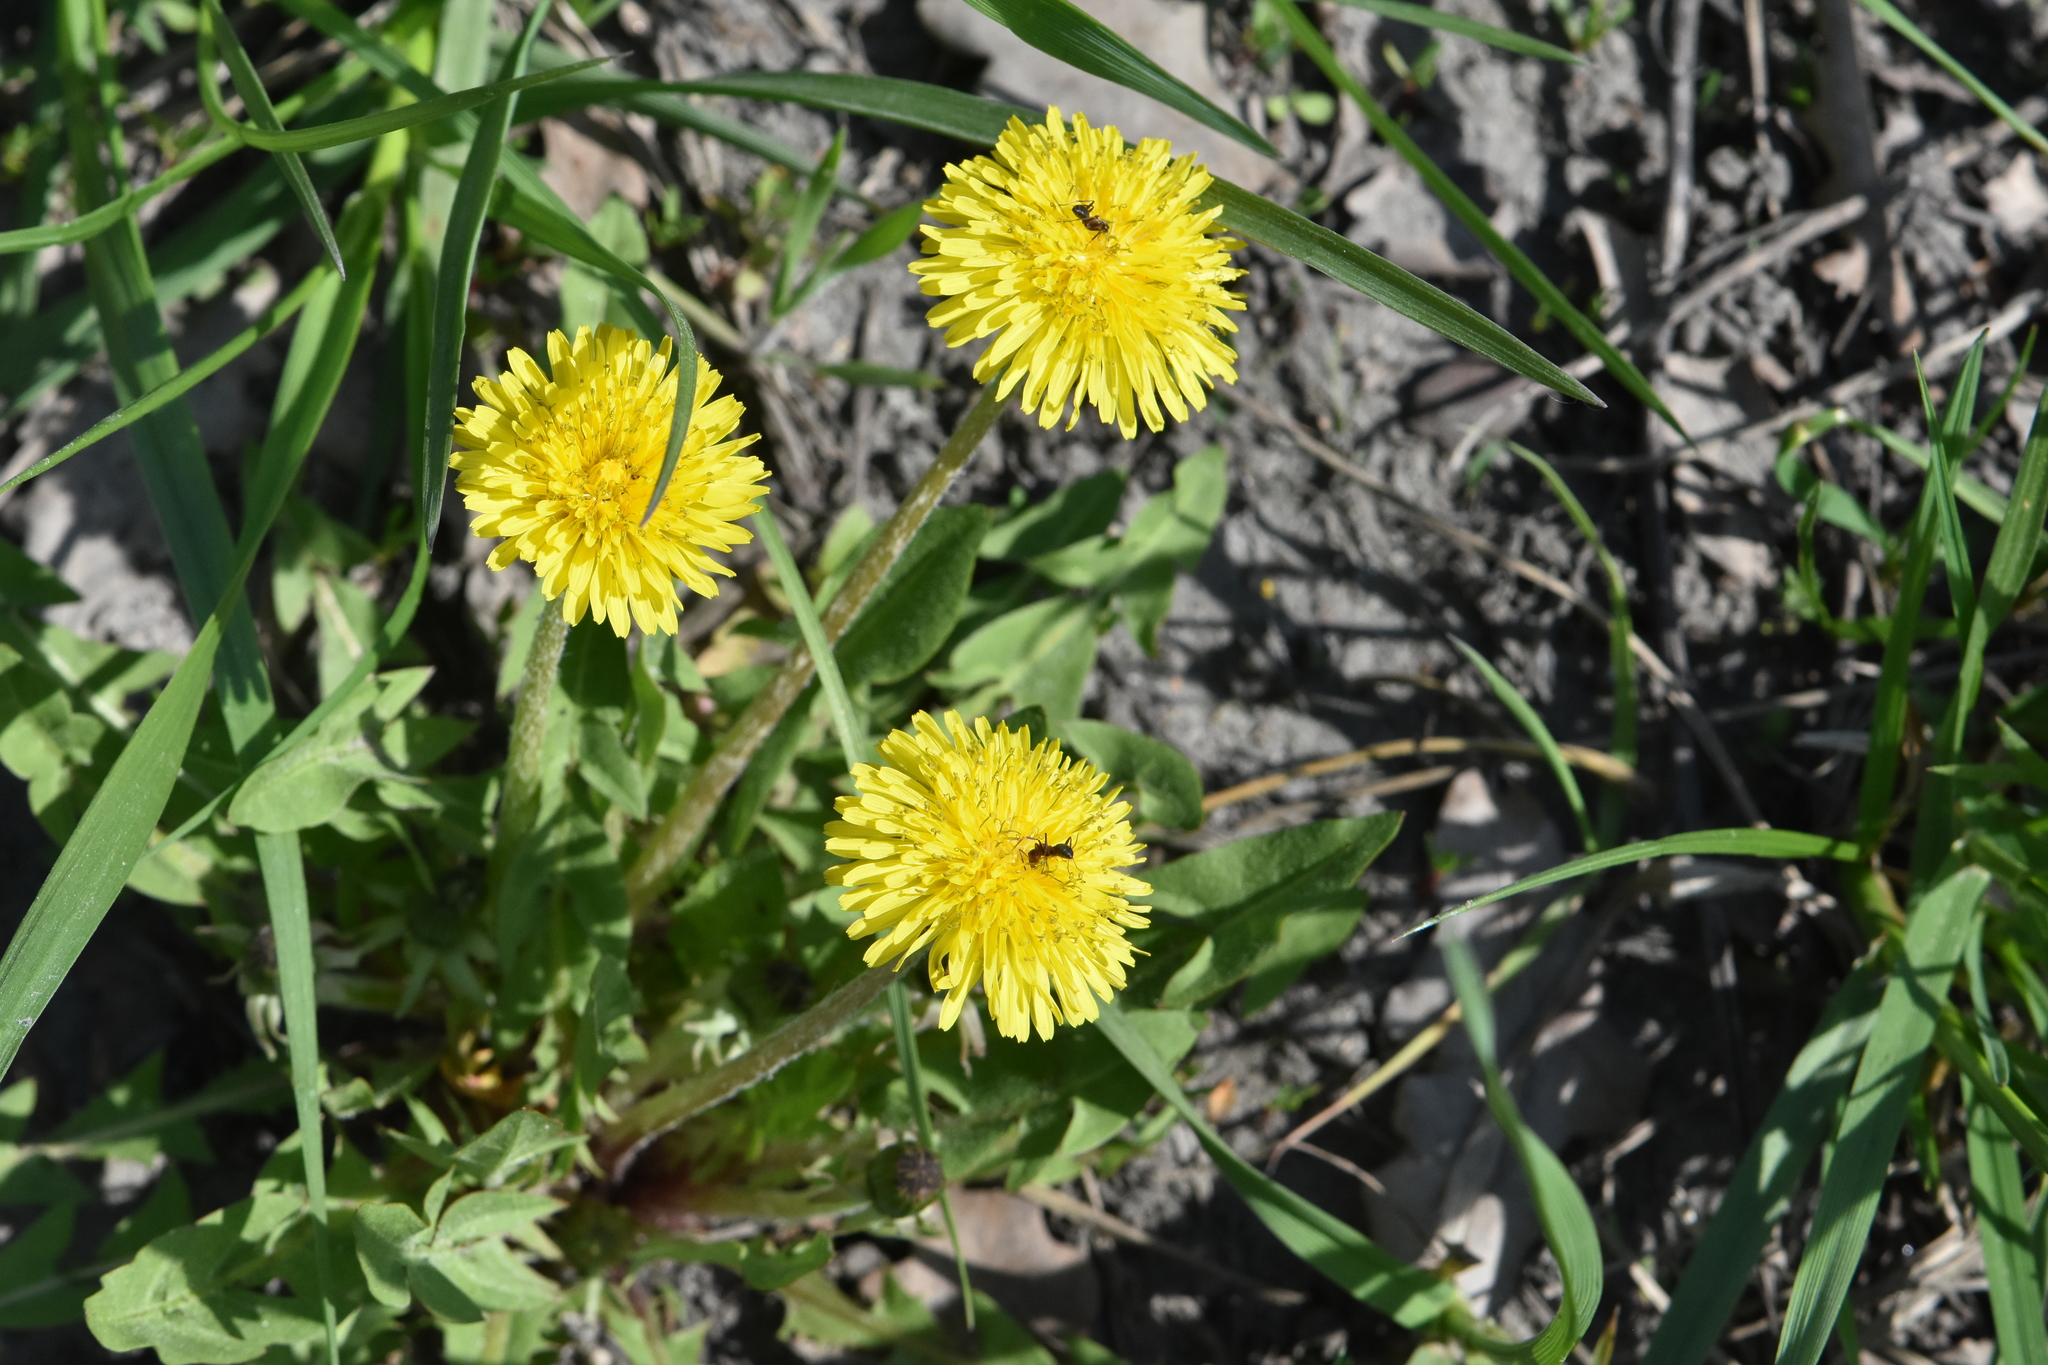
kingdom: Plantae
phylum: Tracheophyta
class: Magnoliopsida
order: Asterales
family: Asteraceae
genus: Taraxacum
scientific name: Taraxacum officinale
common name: Common dandelion
